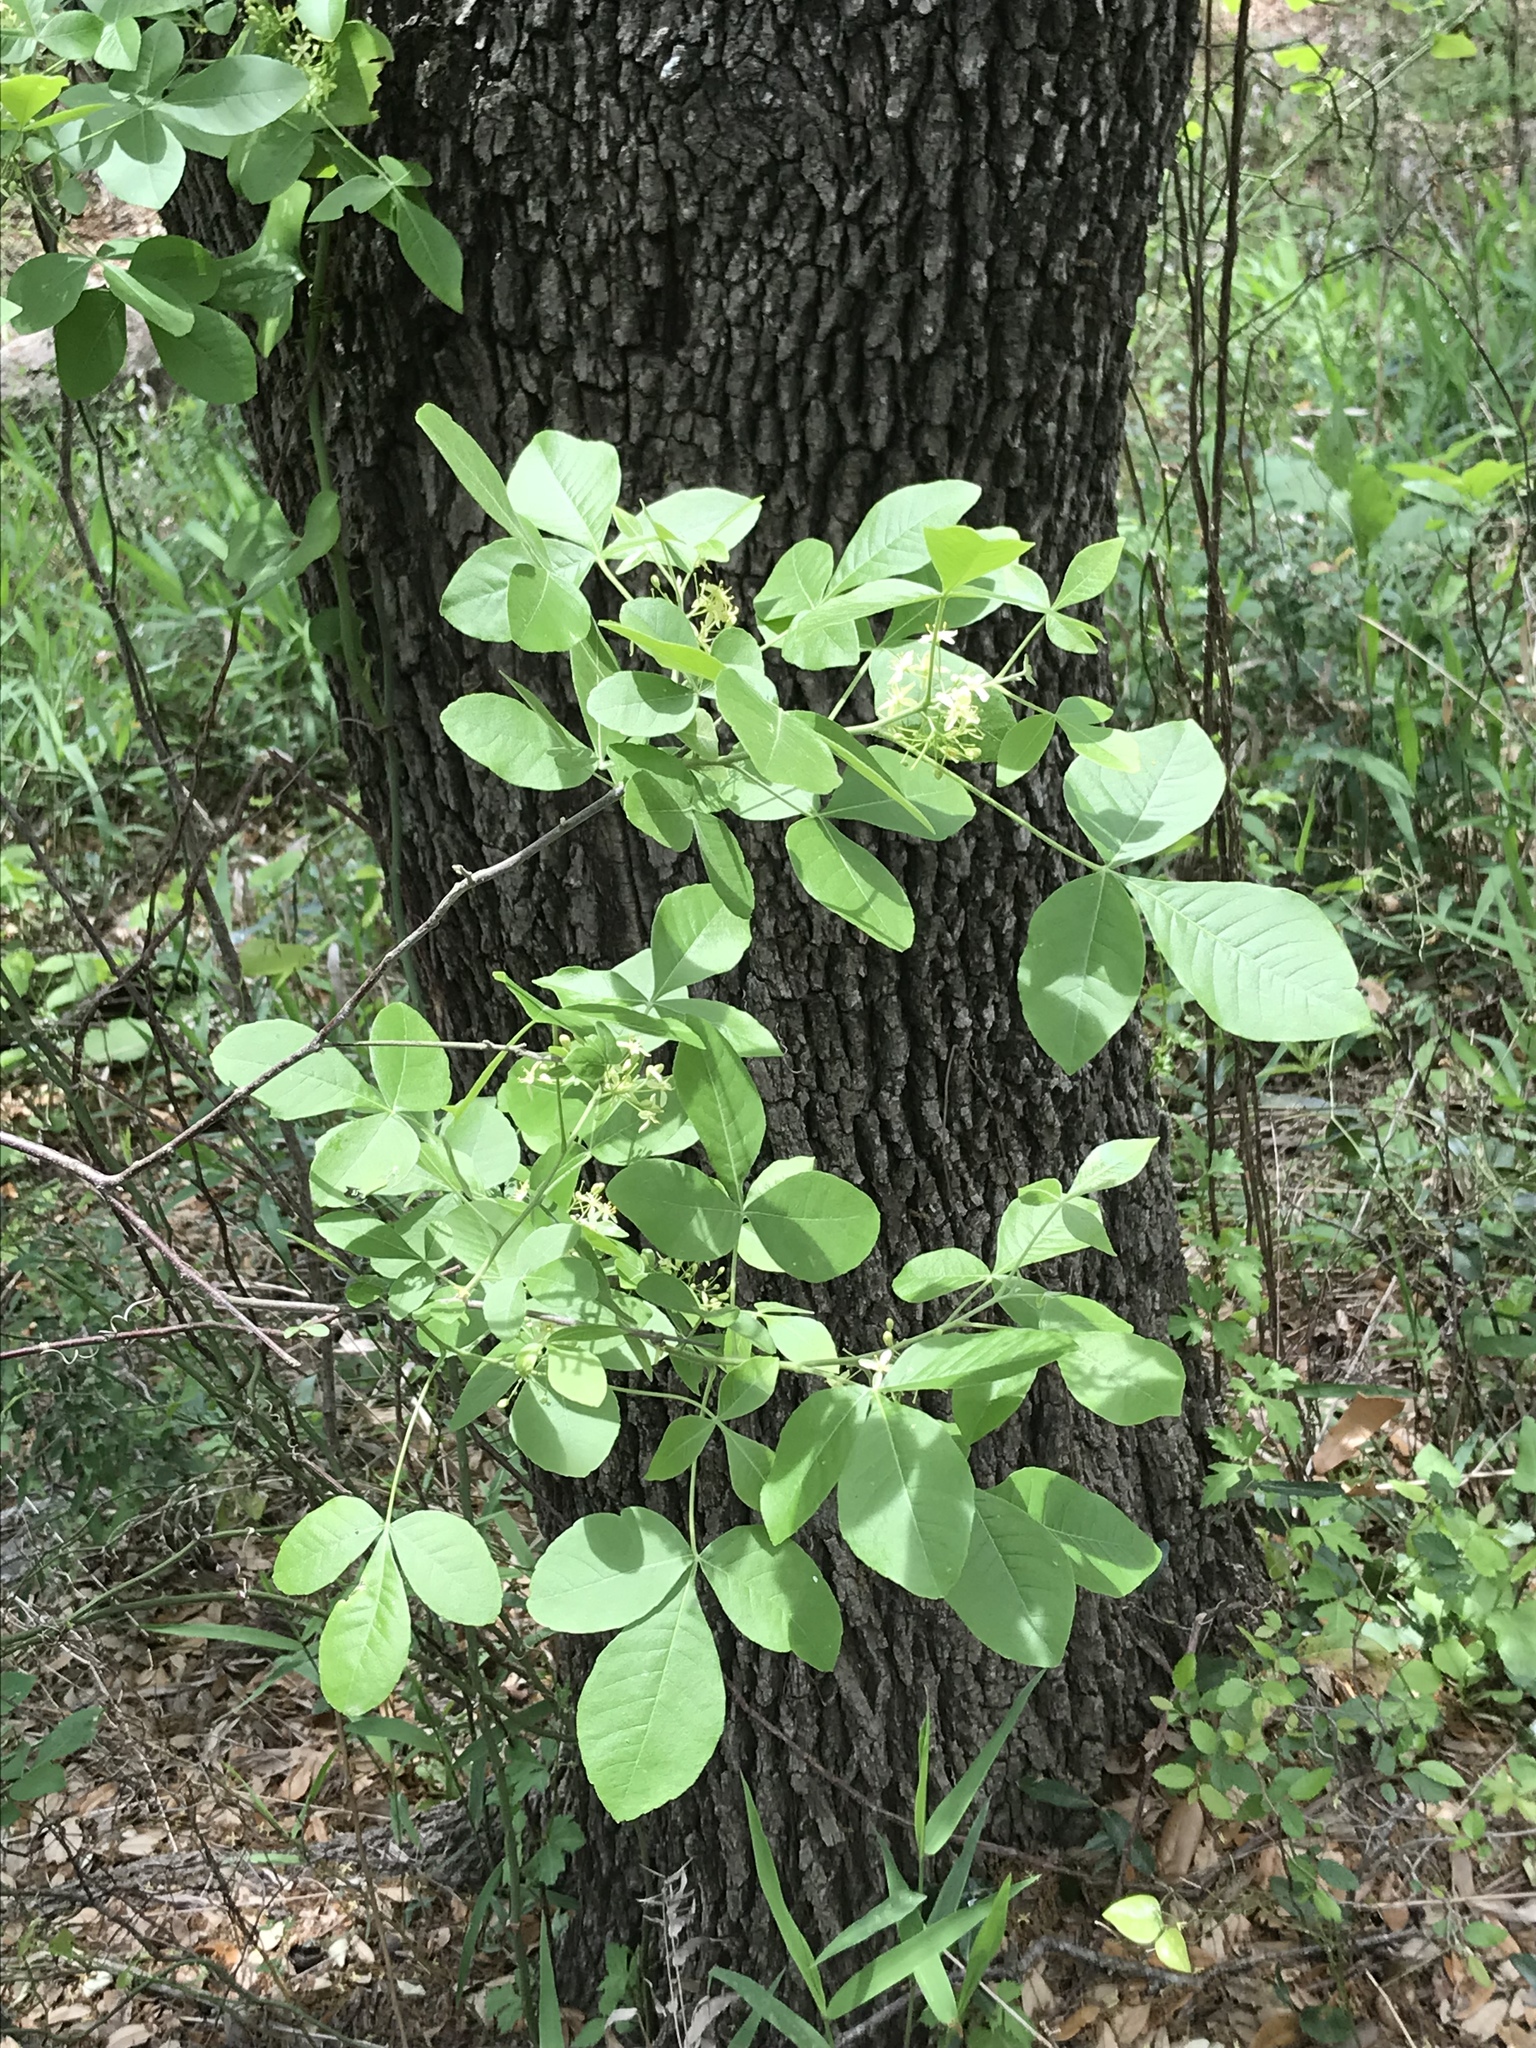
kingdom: Plantae
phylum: Tracheophyta
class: Magnoliopsida
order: Sapindales
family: Rutaceae
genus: Ptelea
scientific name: Ptelea trifoliata
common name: Common hop-tree
